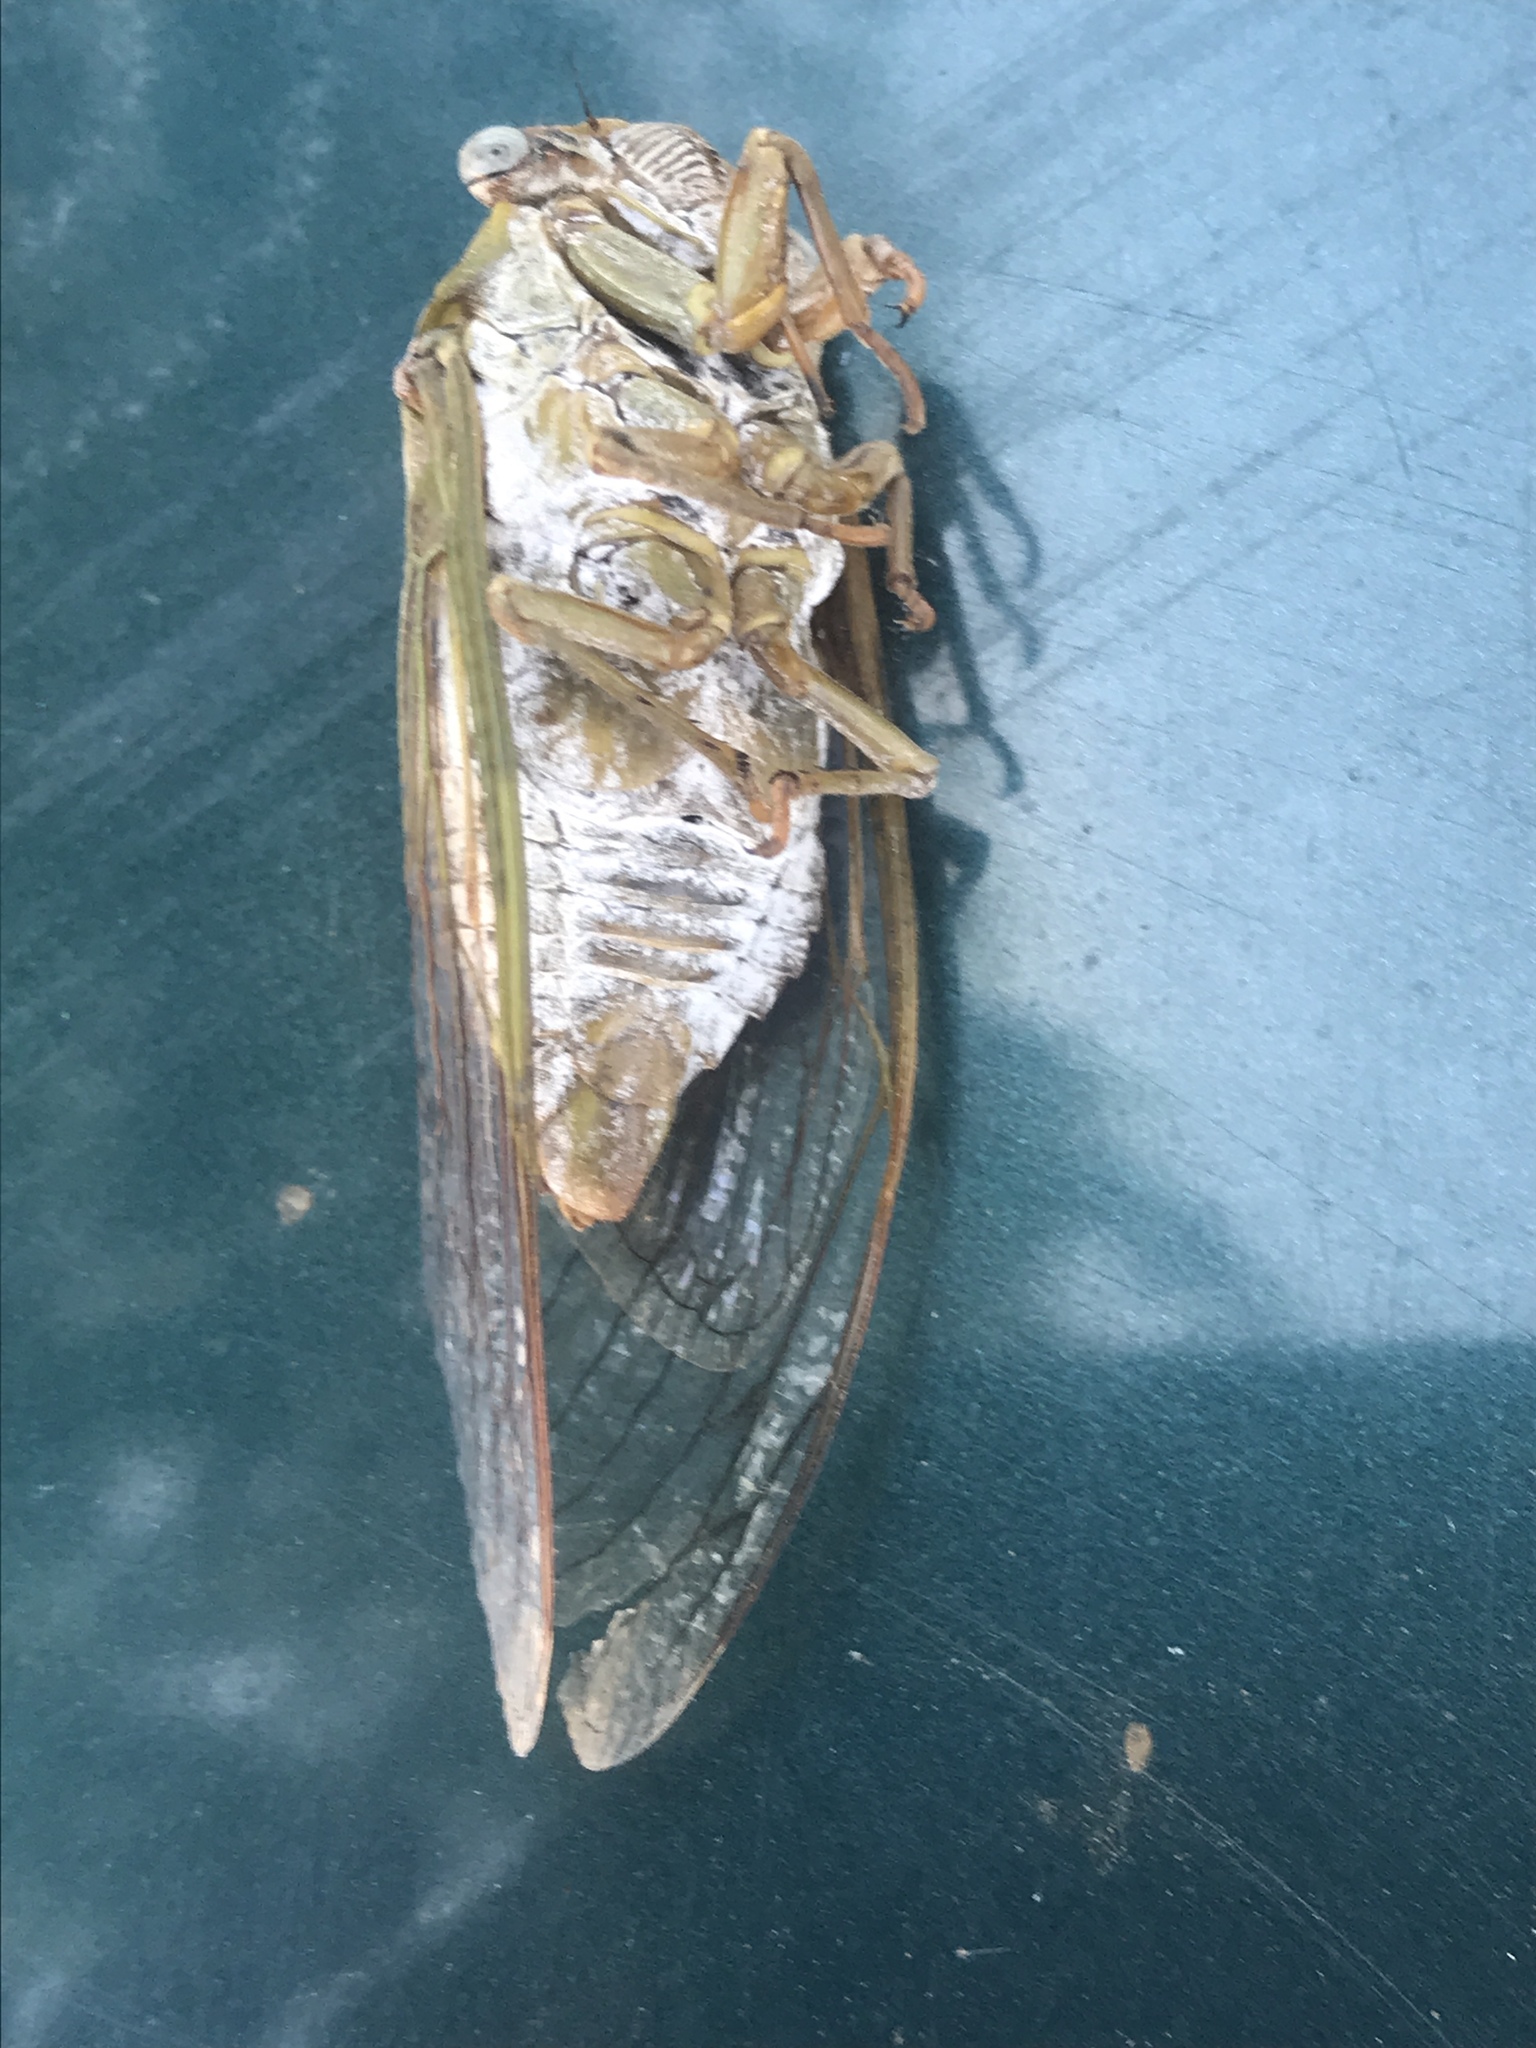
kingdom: Animalia
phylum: Arthropoda
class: Insecta
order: Hemiptera
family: Cicadidae
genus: Megatibicen
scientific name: Megatibicen dealbatus
